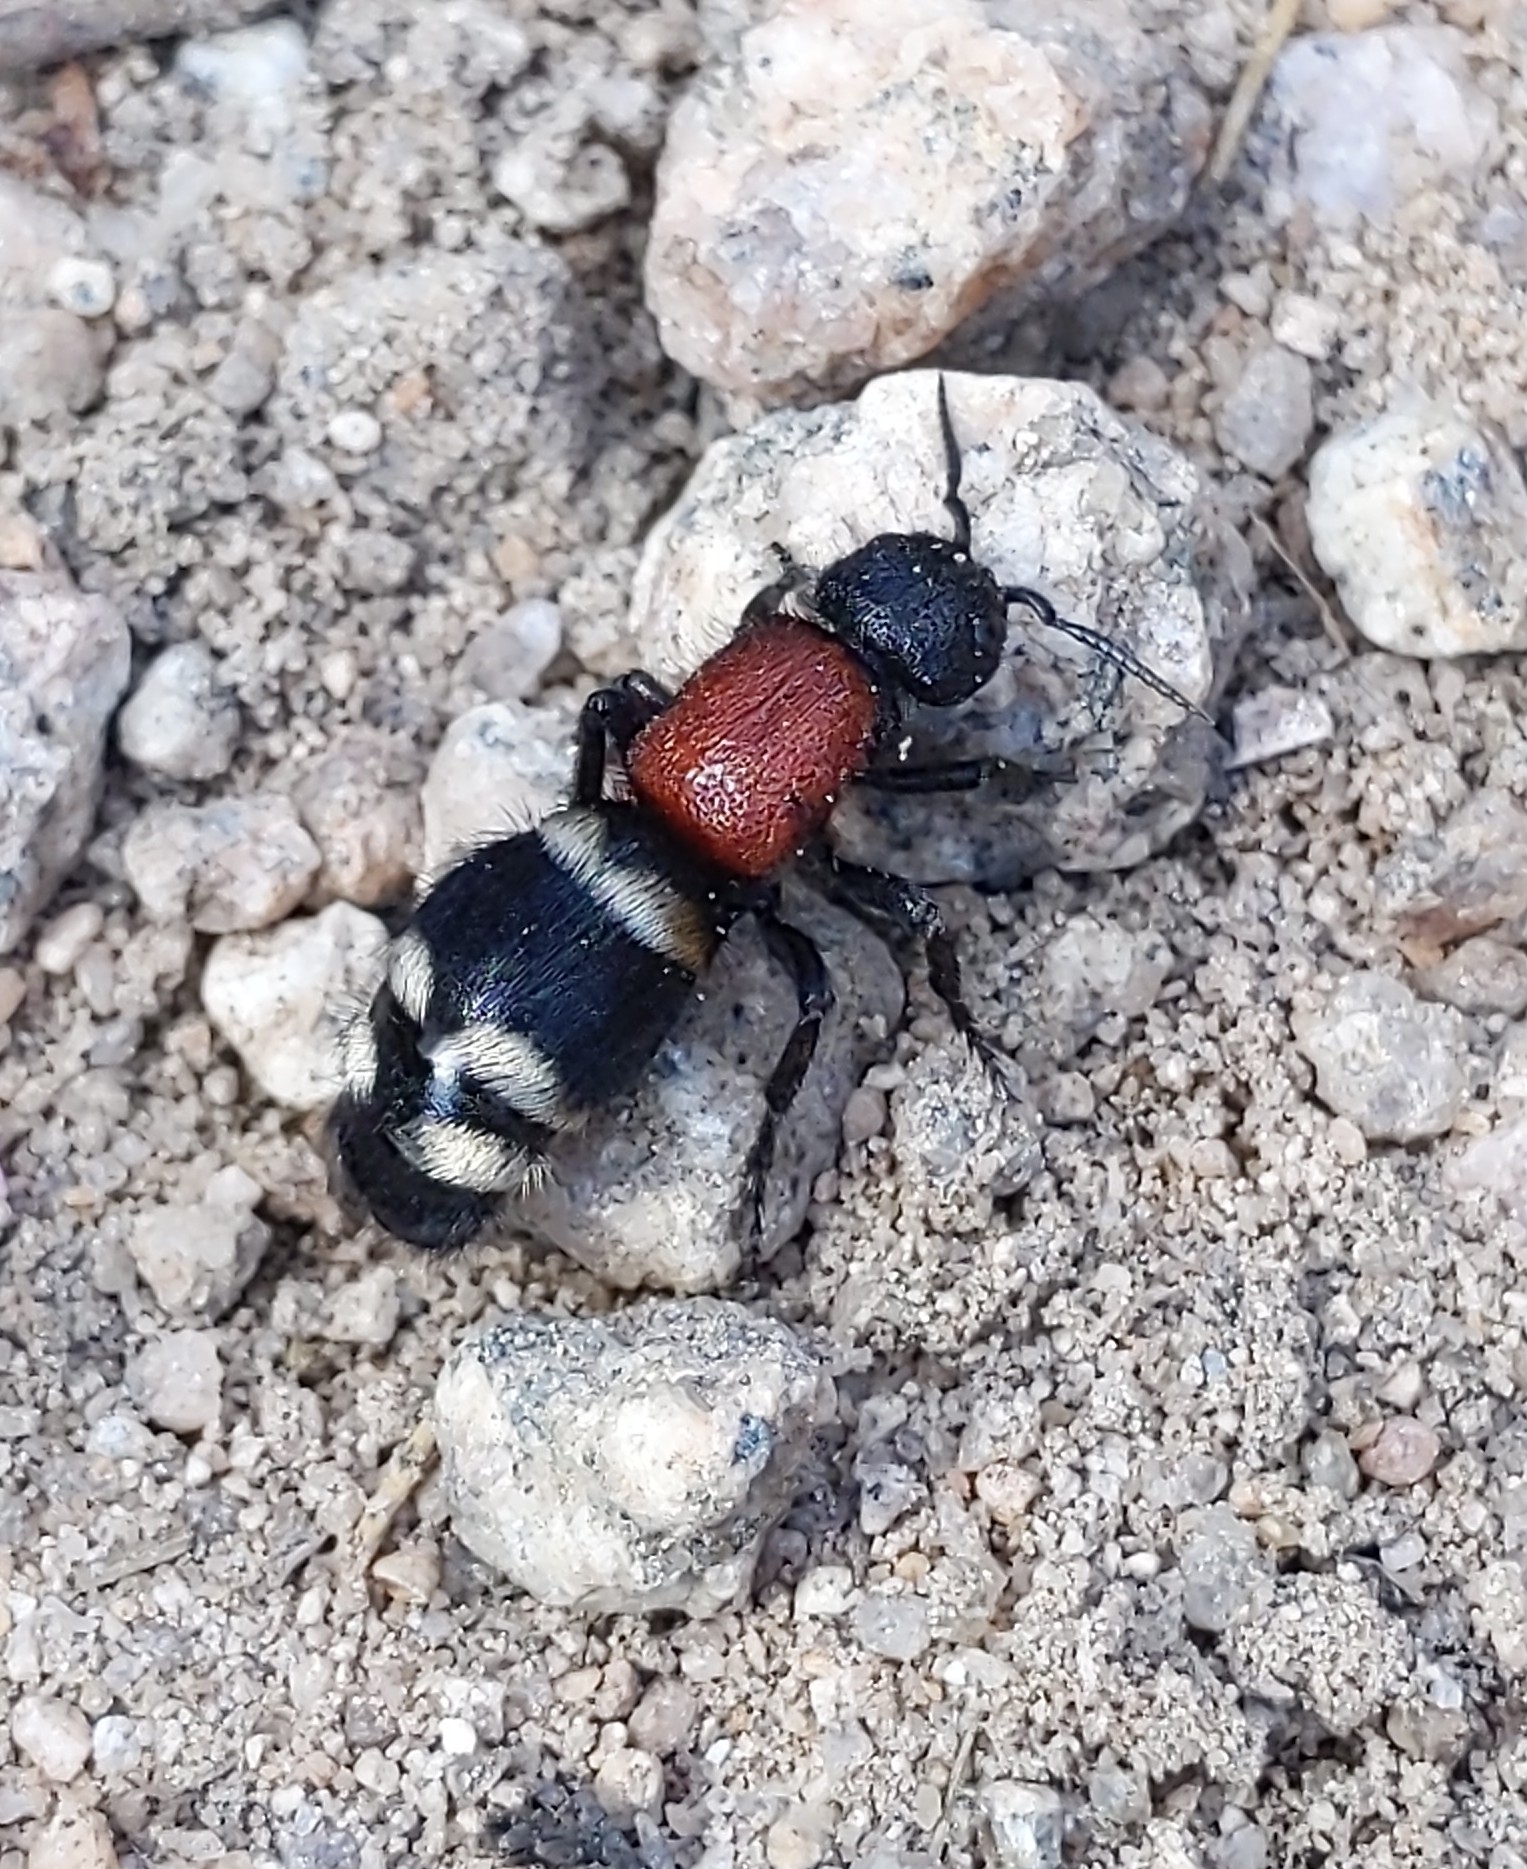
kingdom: Animalia
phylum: Arthropoda
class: Insecta
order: Hymenoptera
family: Mutillidae
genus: Mutilla
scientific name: Mutilla europaea
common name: Large velvet ant
